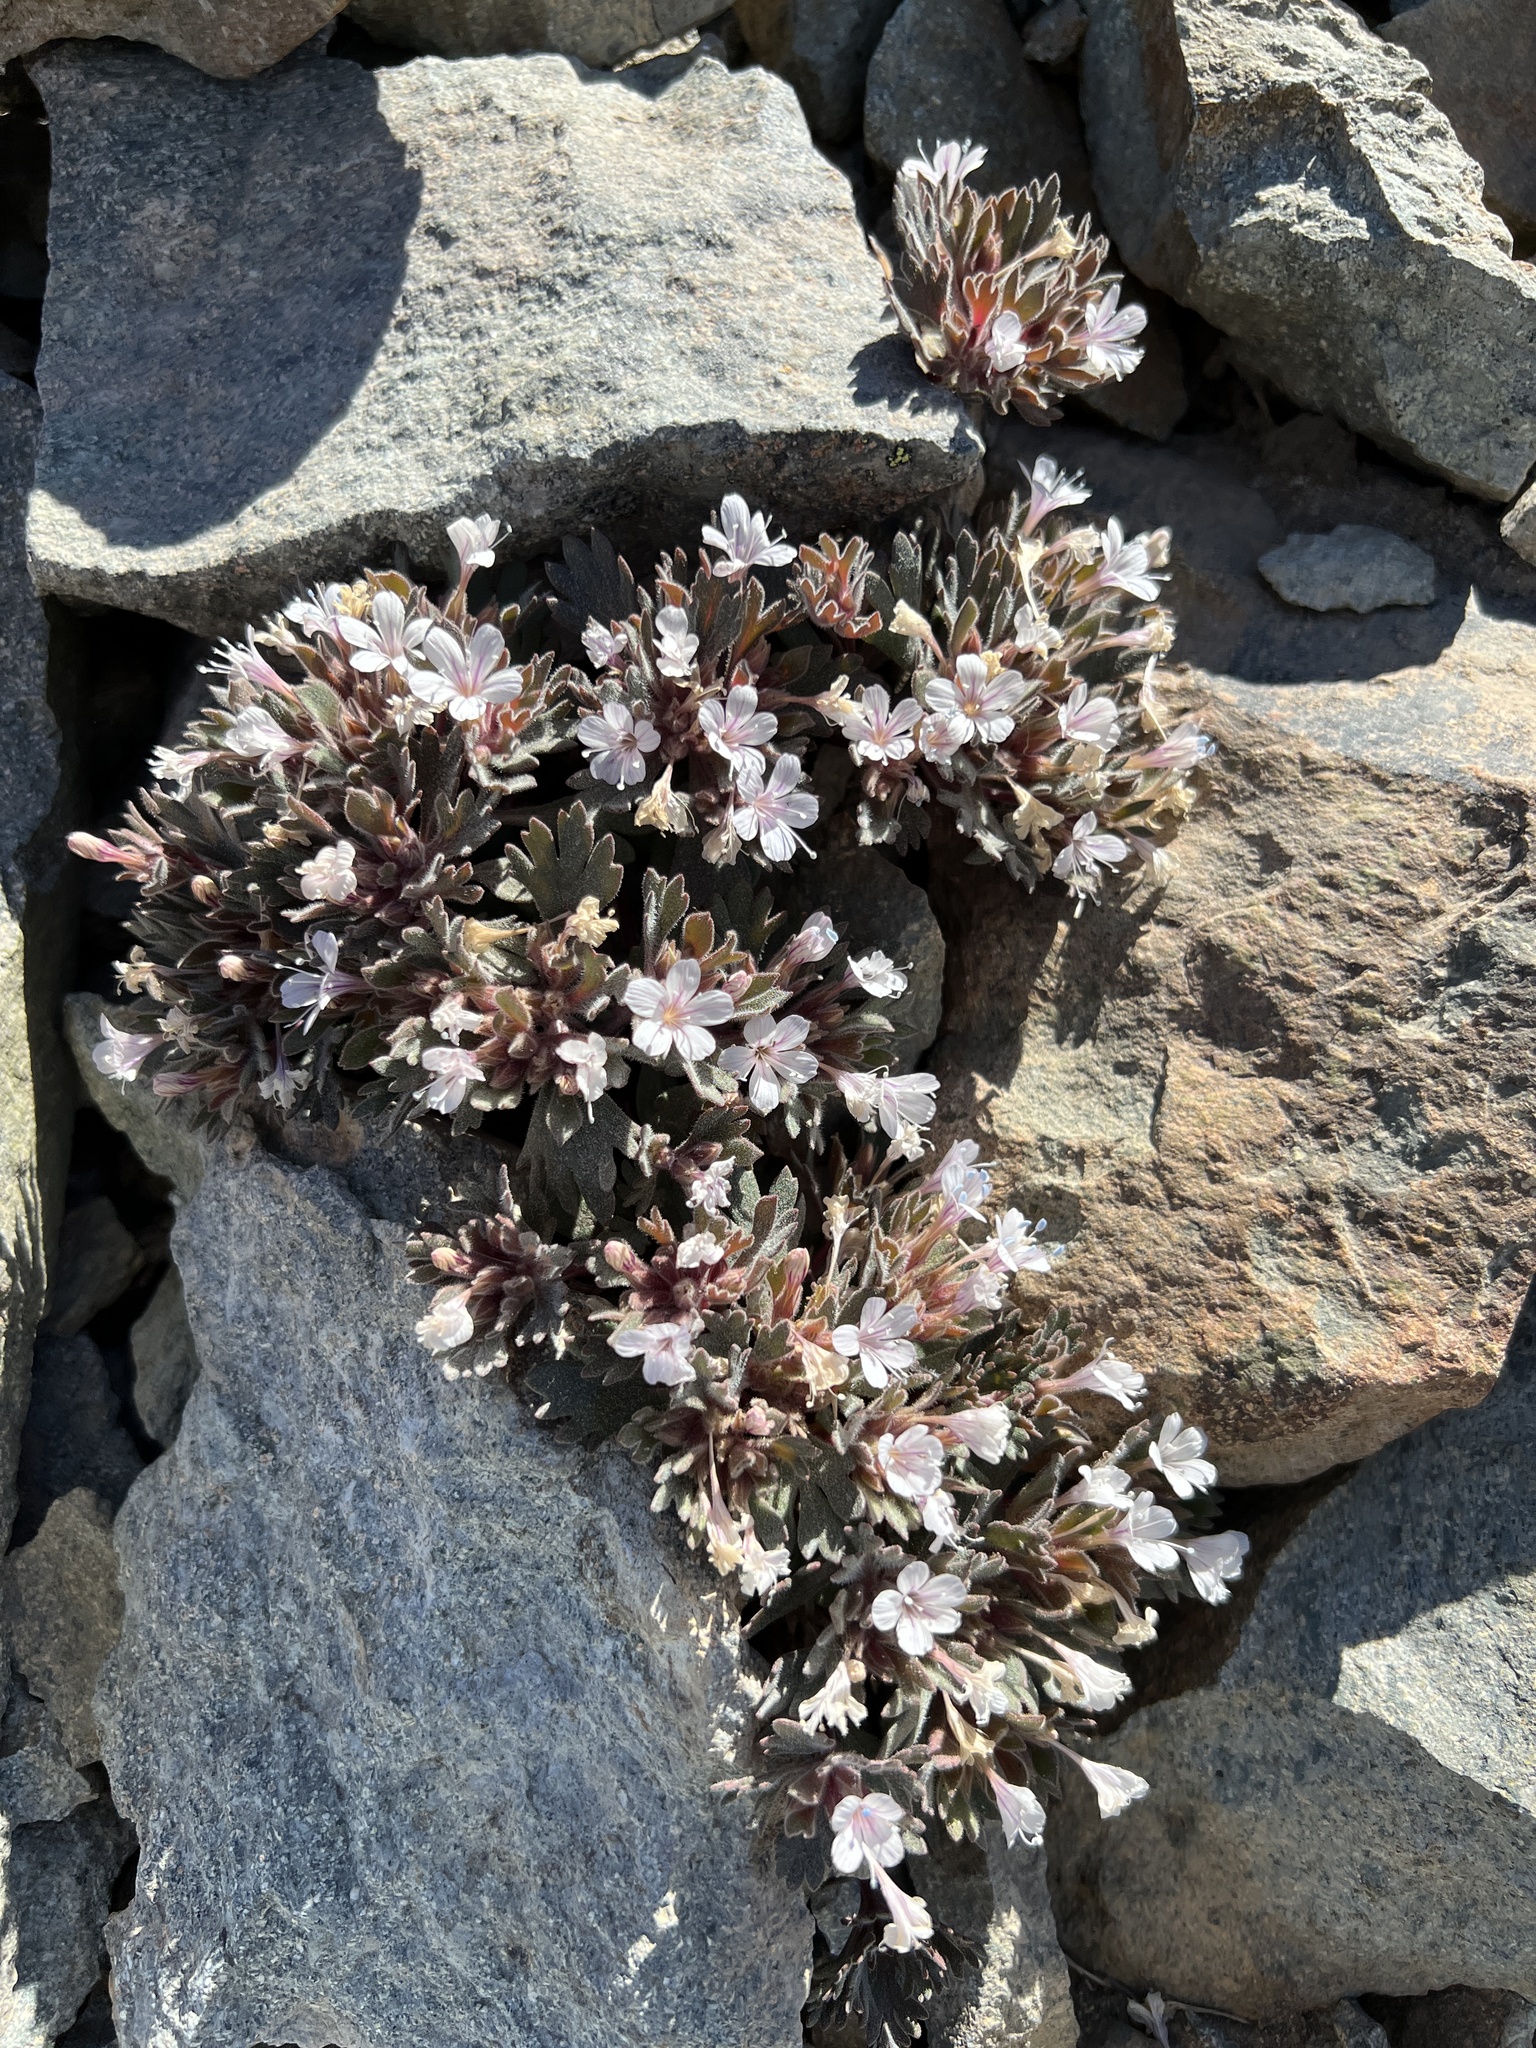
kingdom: Plantae
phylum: Tracheophyta
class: Magnoliopsida
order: Ericales
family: Polemoniaceae
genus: Collomia
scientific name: Collomia larsenii
